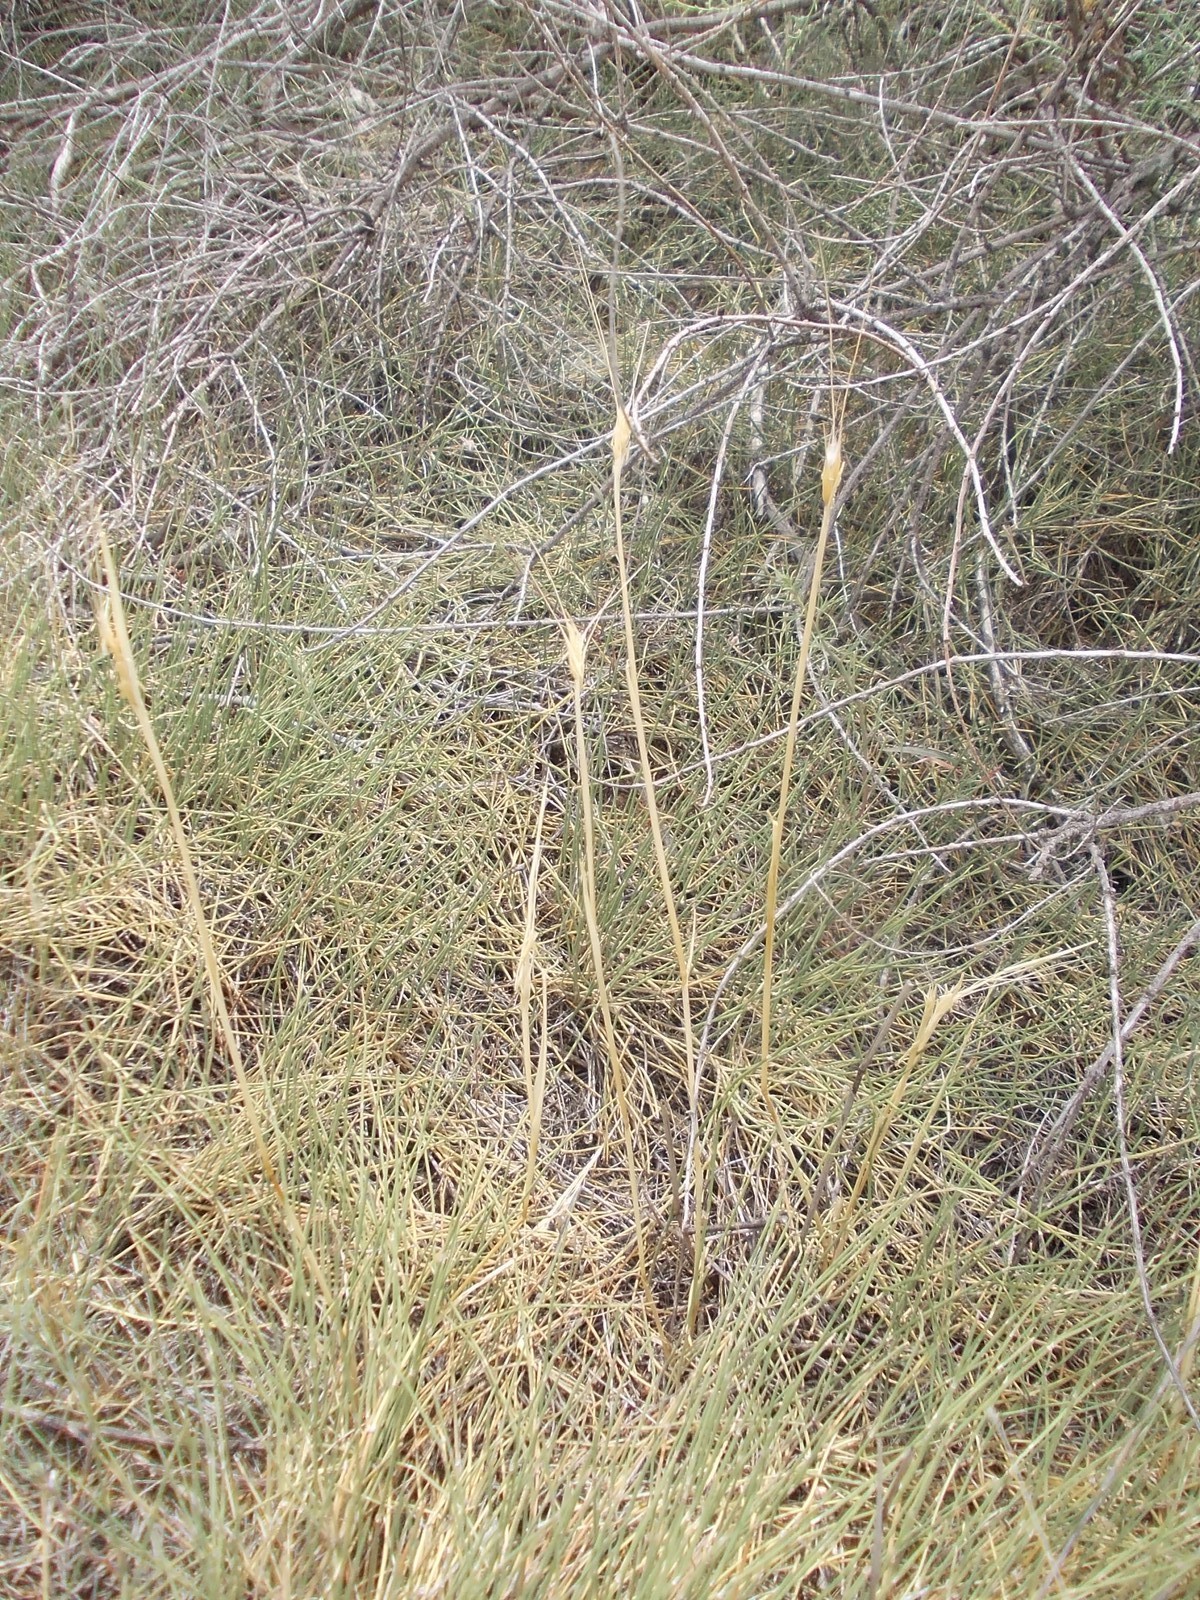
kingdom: Plantae
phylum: Tracheophyta
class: Liliopsida
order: Poales
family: Poaceae
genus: Secale
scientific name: Secale sylvestre
